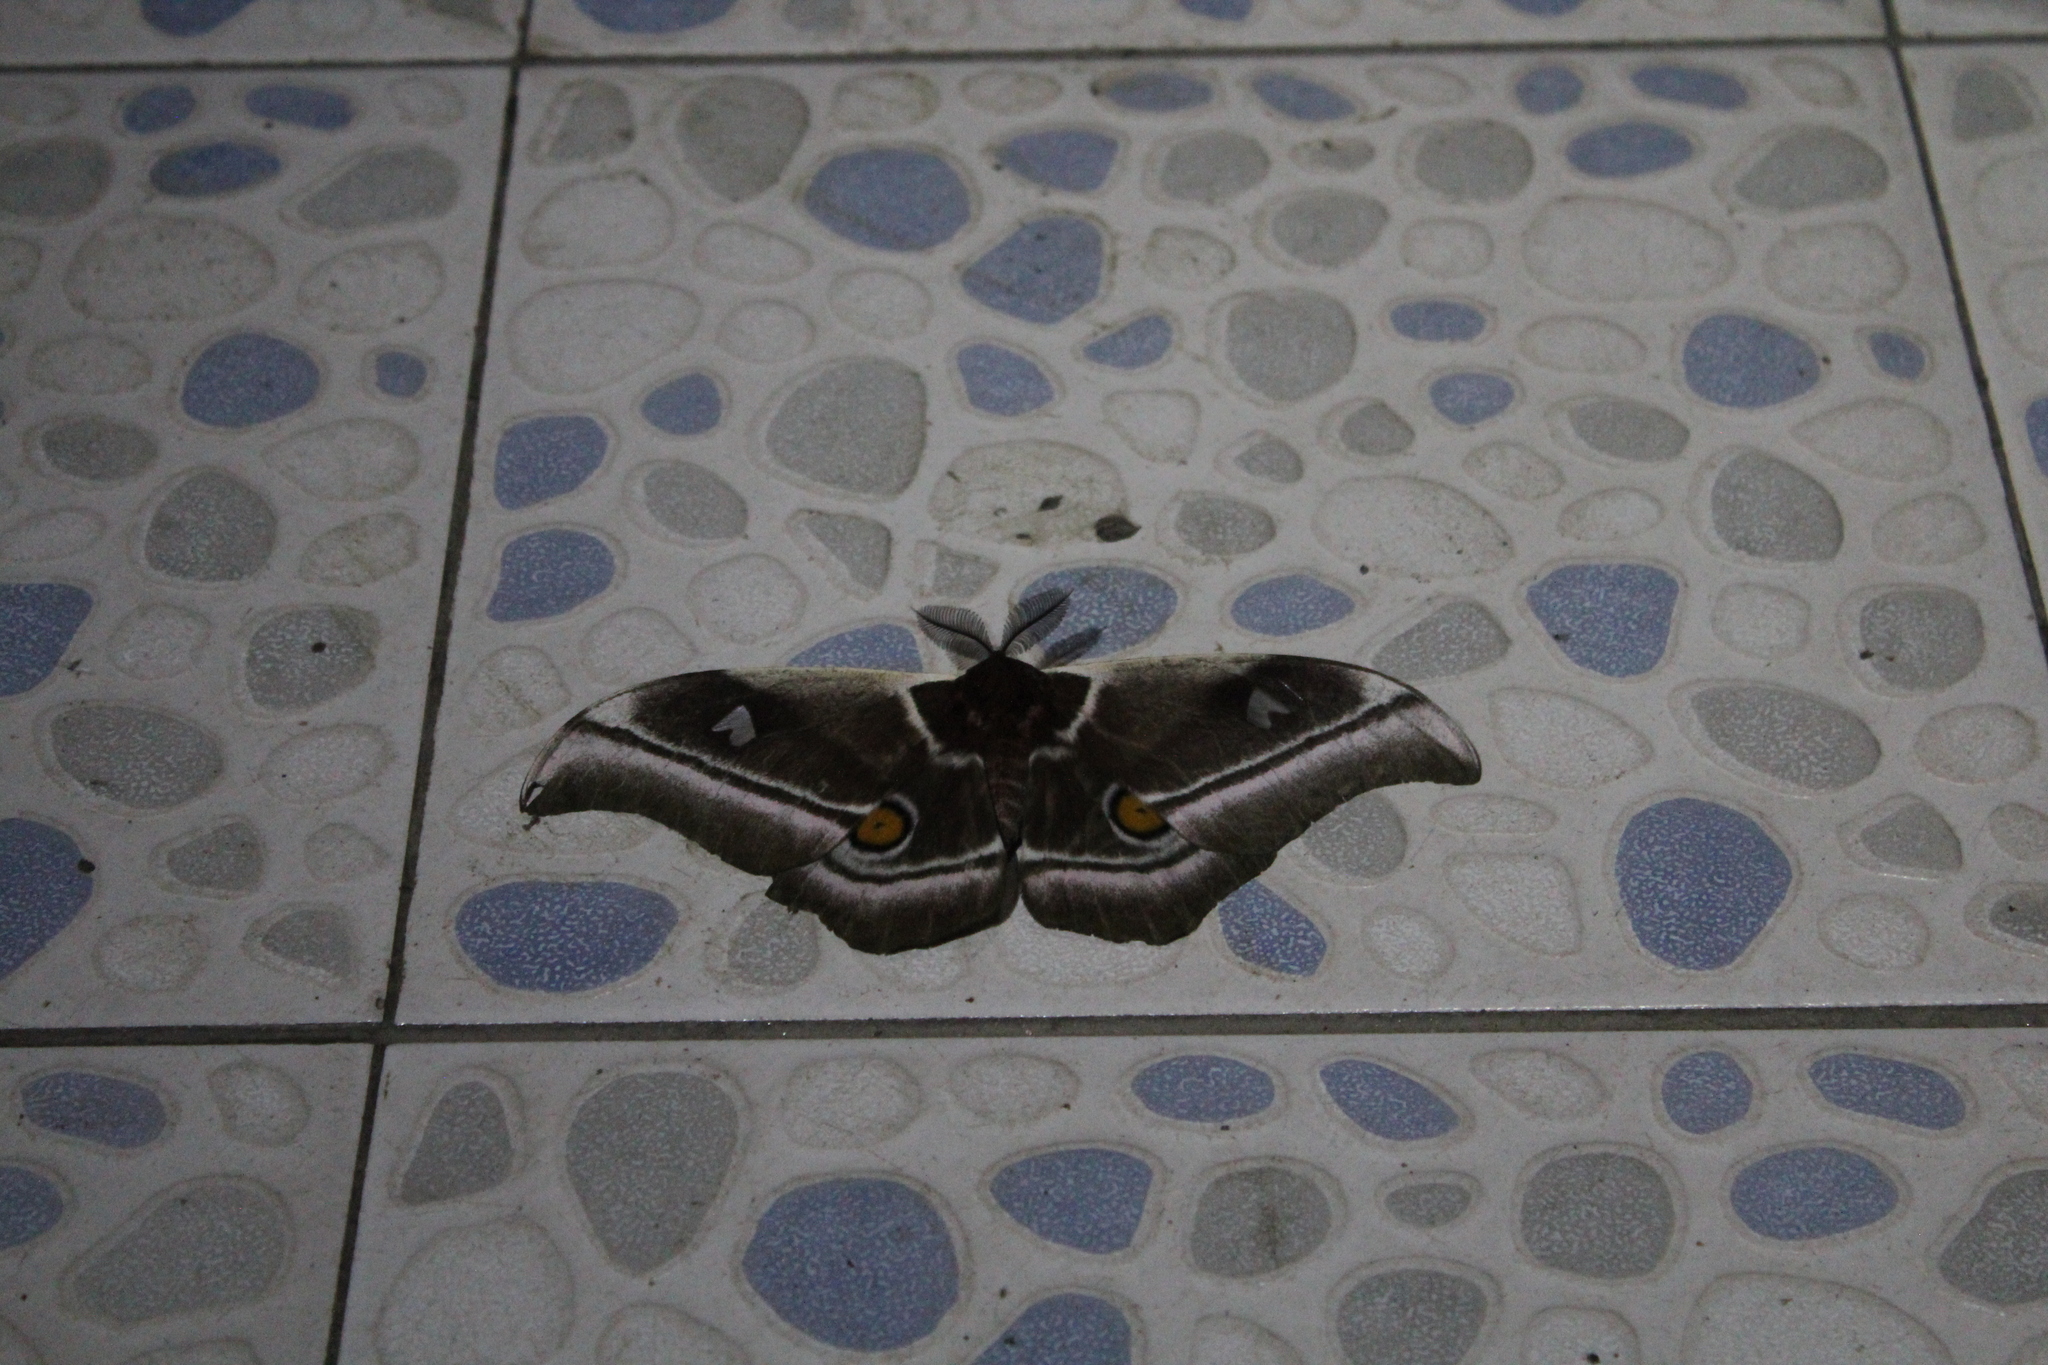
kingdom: Animalia
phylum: Arthropoda
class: Insecta
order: Lepidoptera
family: Saturniidae
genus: Bunaea
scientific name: Bunaea aslauga
